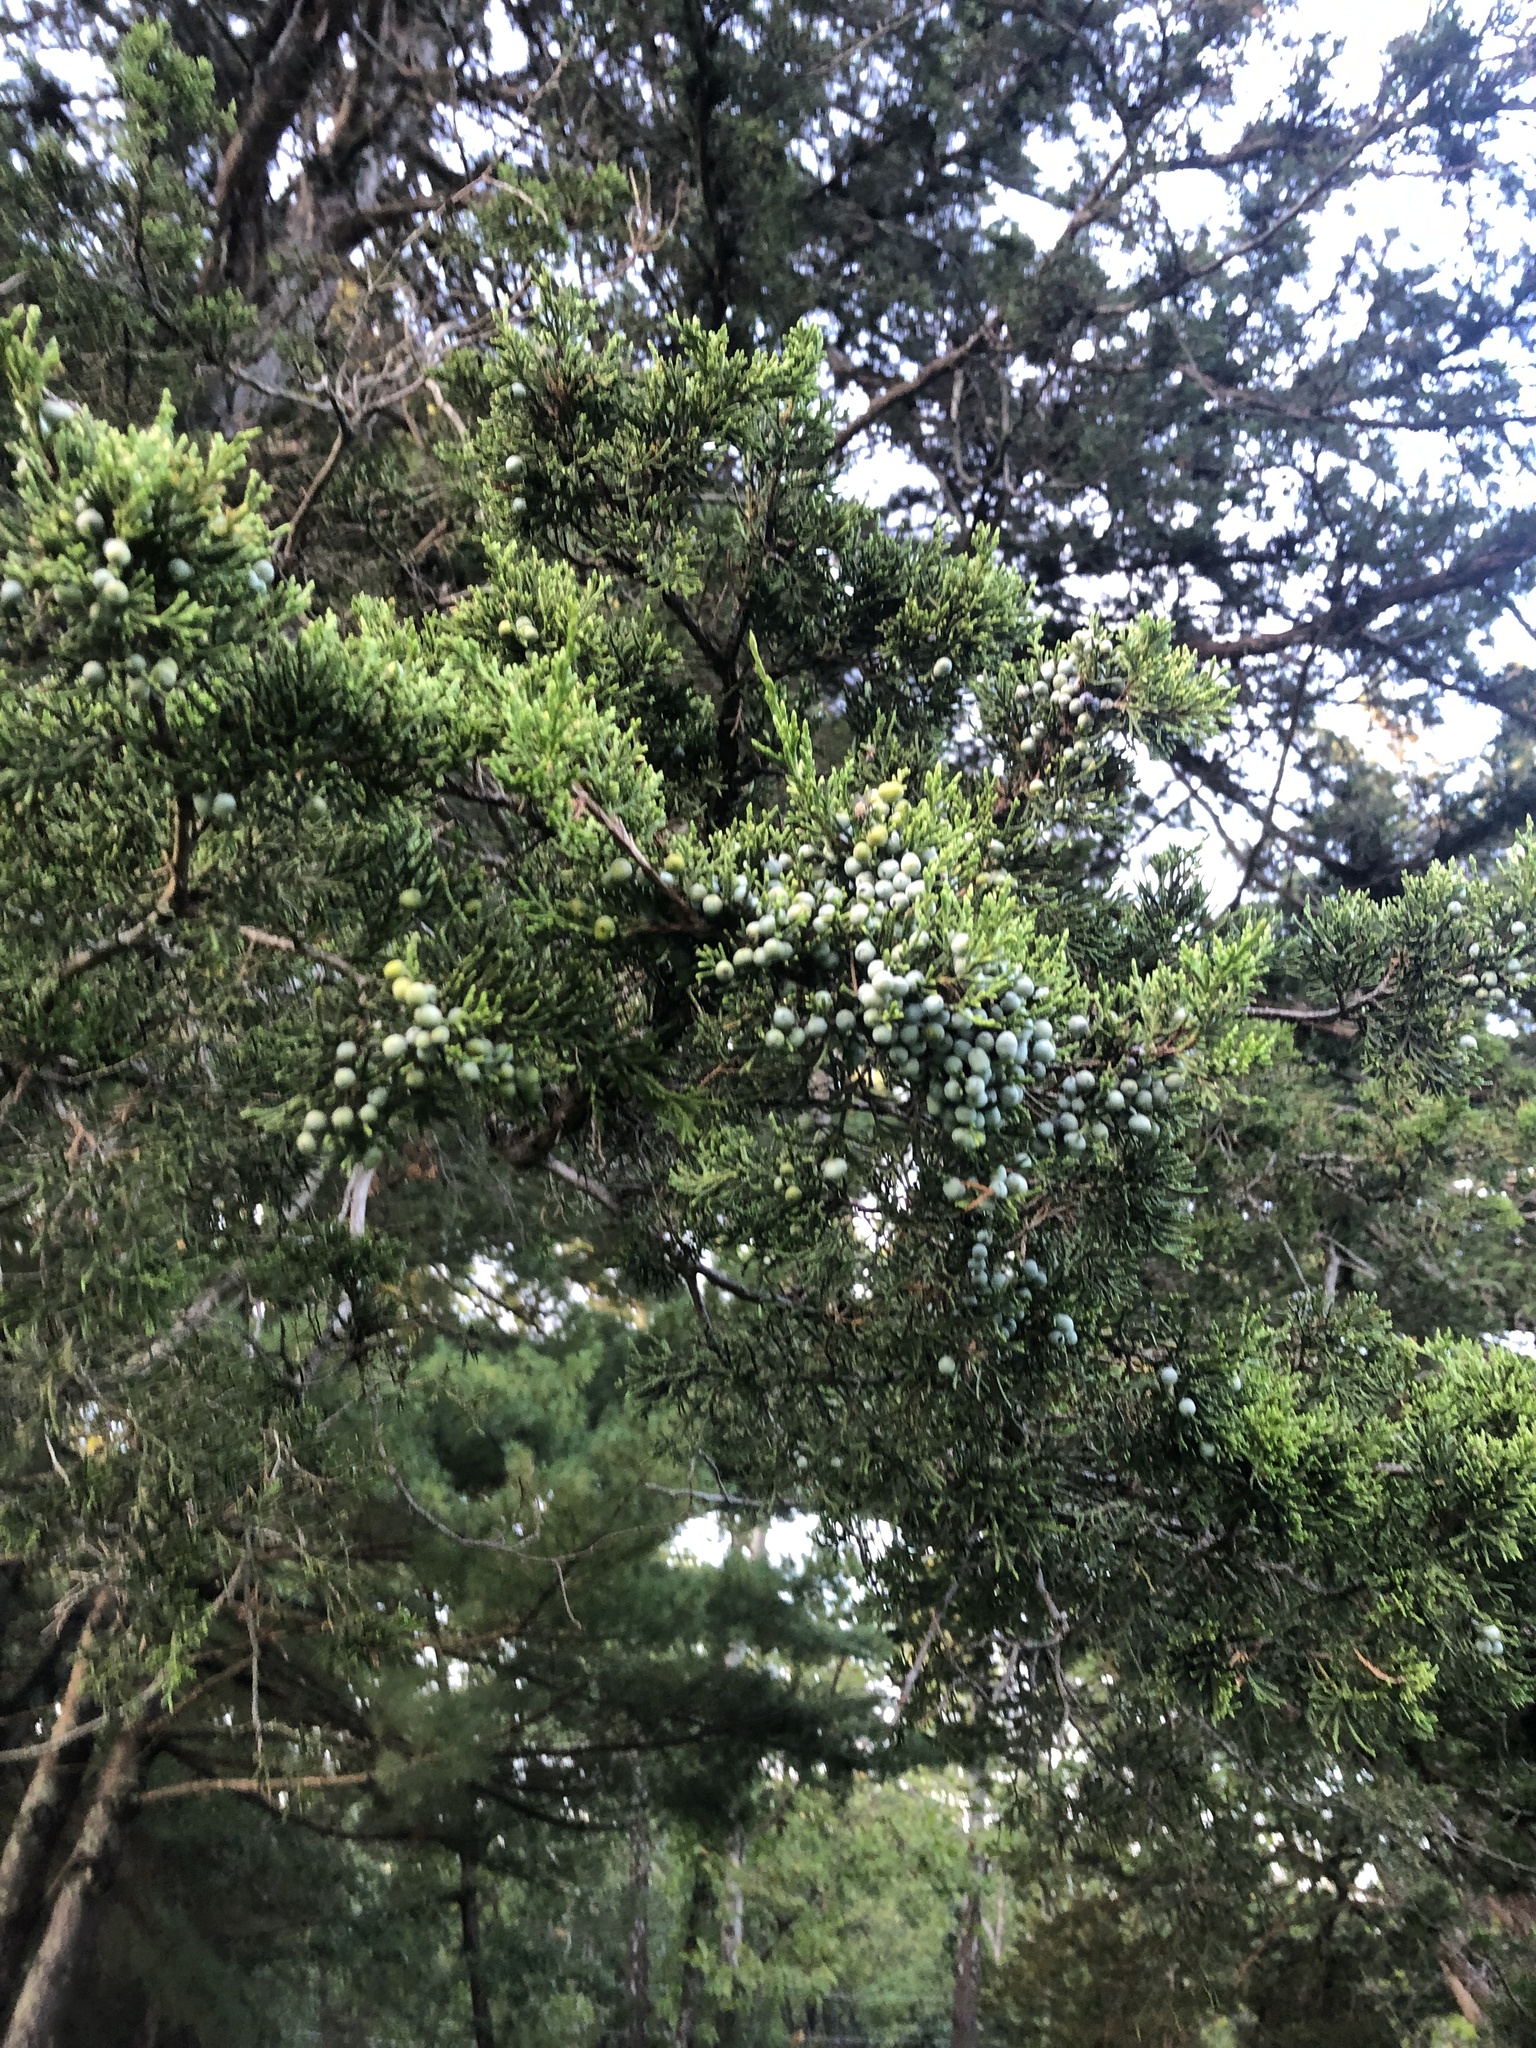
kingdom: Plantae
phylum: Tracheophyta
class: Pinopsida
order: Pinales
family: Cupressaceae
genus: Juniperus
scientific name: Juniperus virginiana
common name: Red juniper
